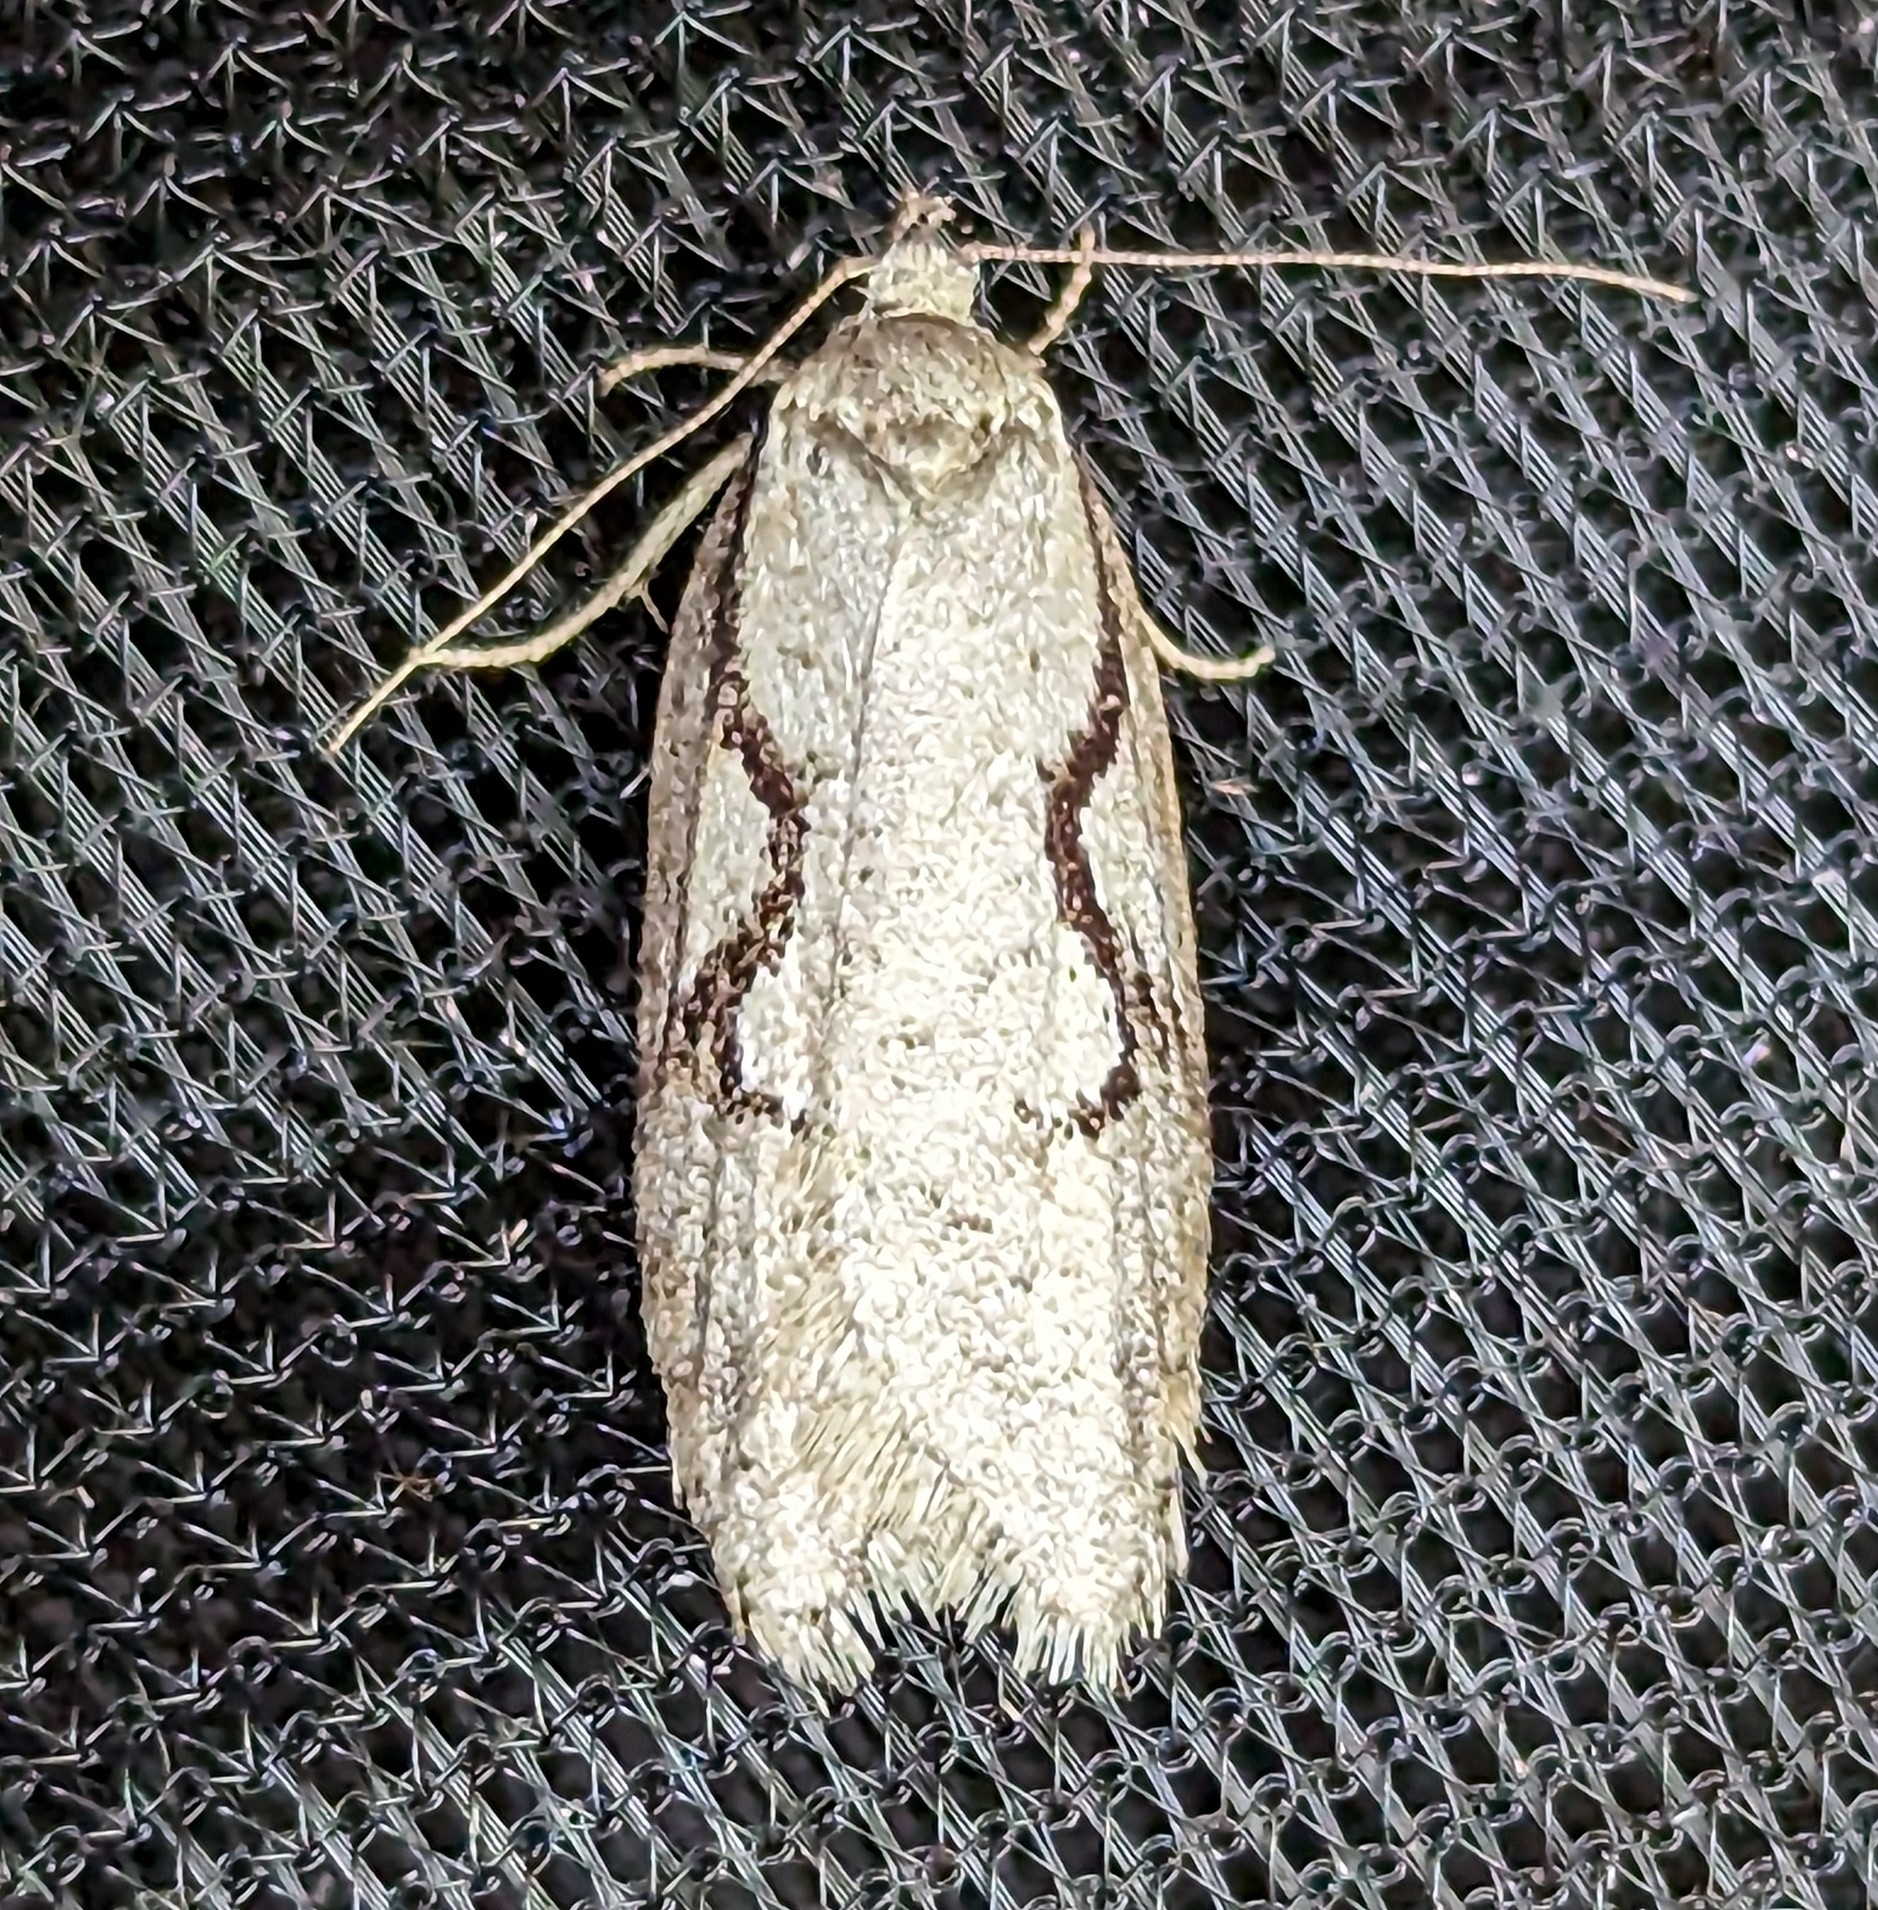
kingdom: Animalia
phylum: Arthropoda
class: Insecta
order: Lepidoptera
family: Depressariidae
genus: Semioscopis
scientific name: Semioscopis packardella
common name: Packard's concealer moth
